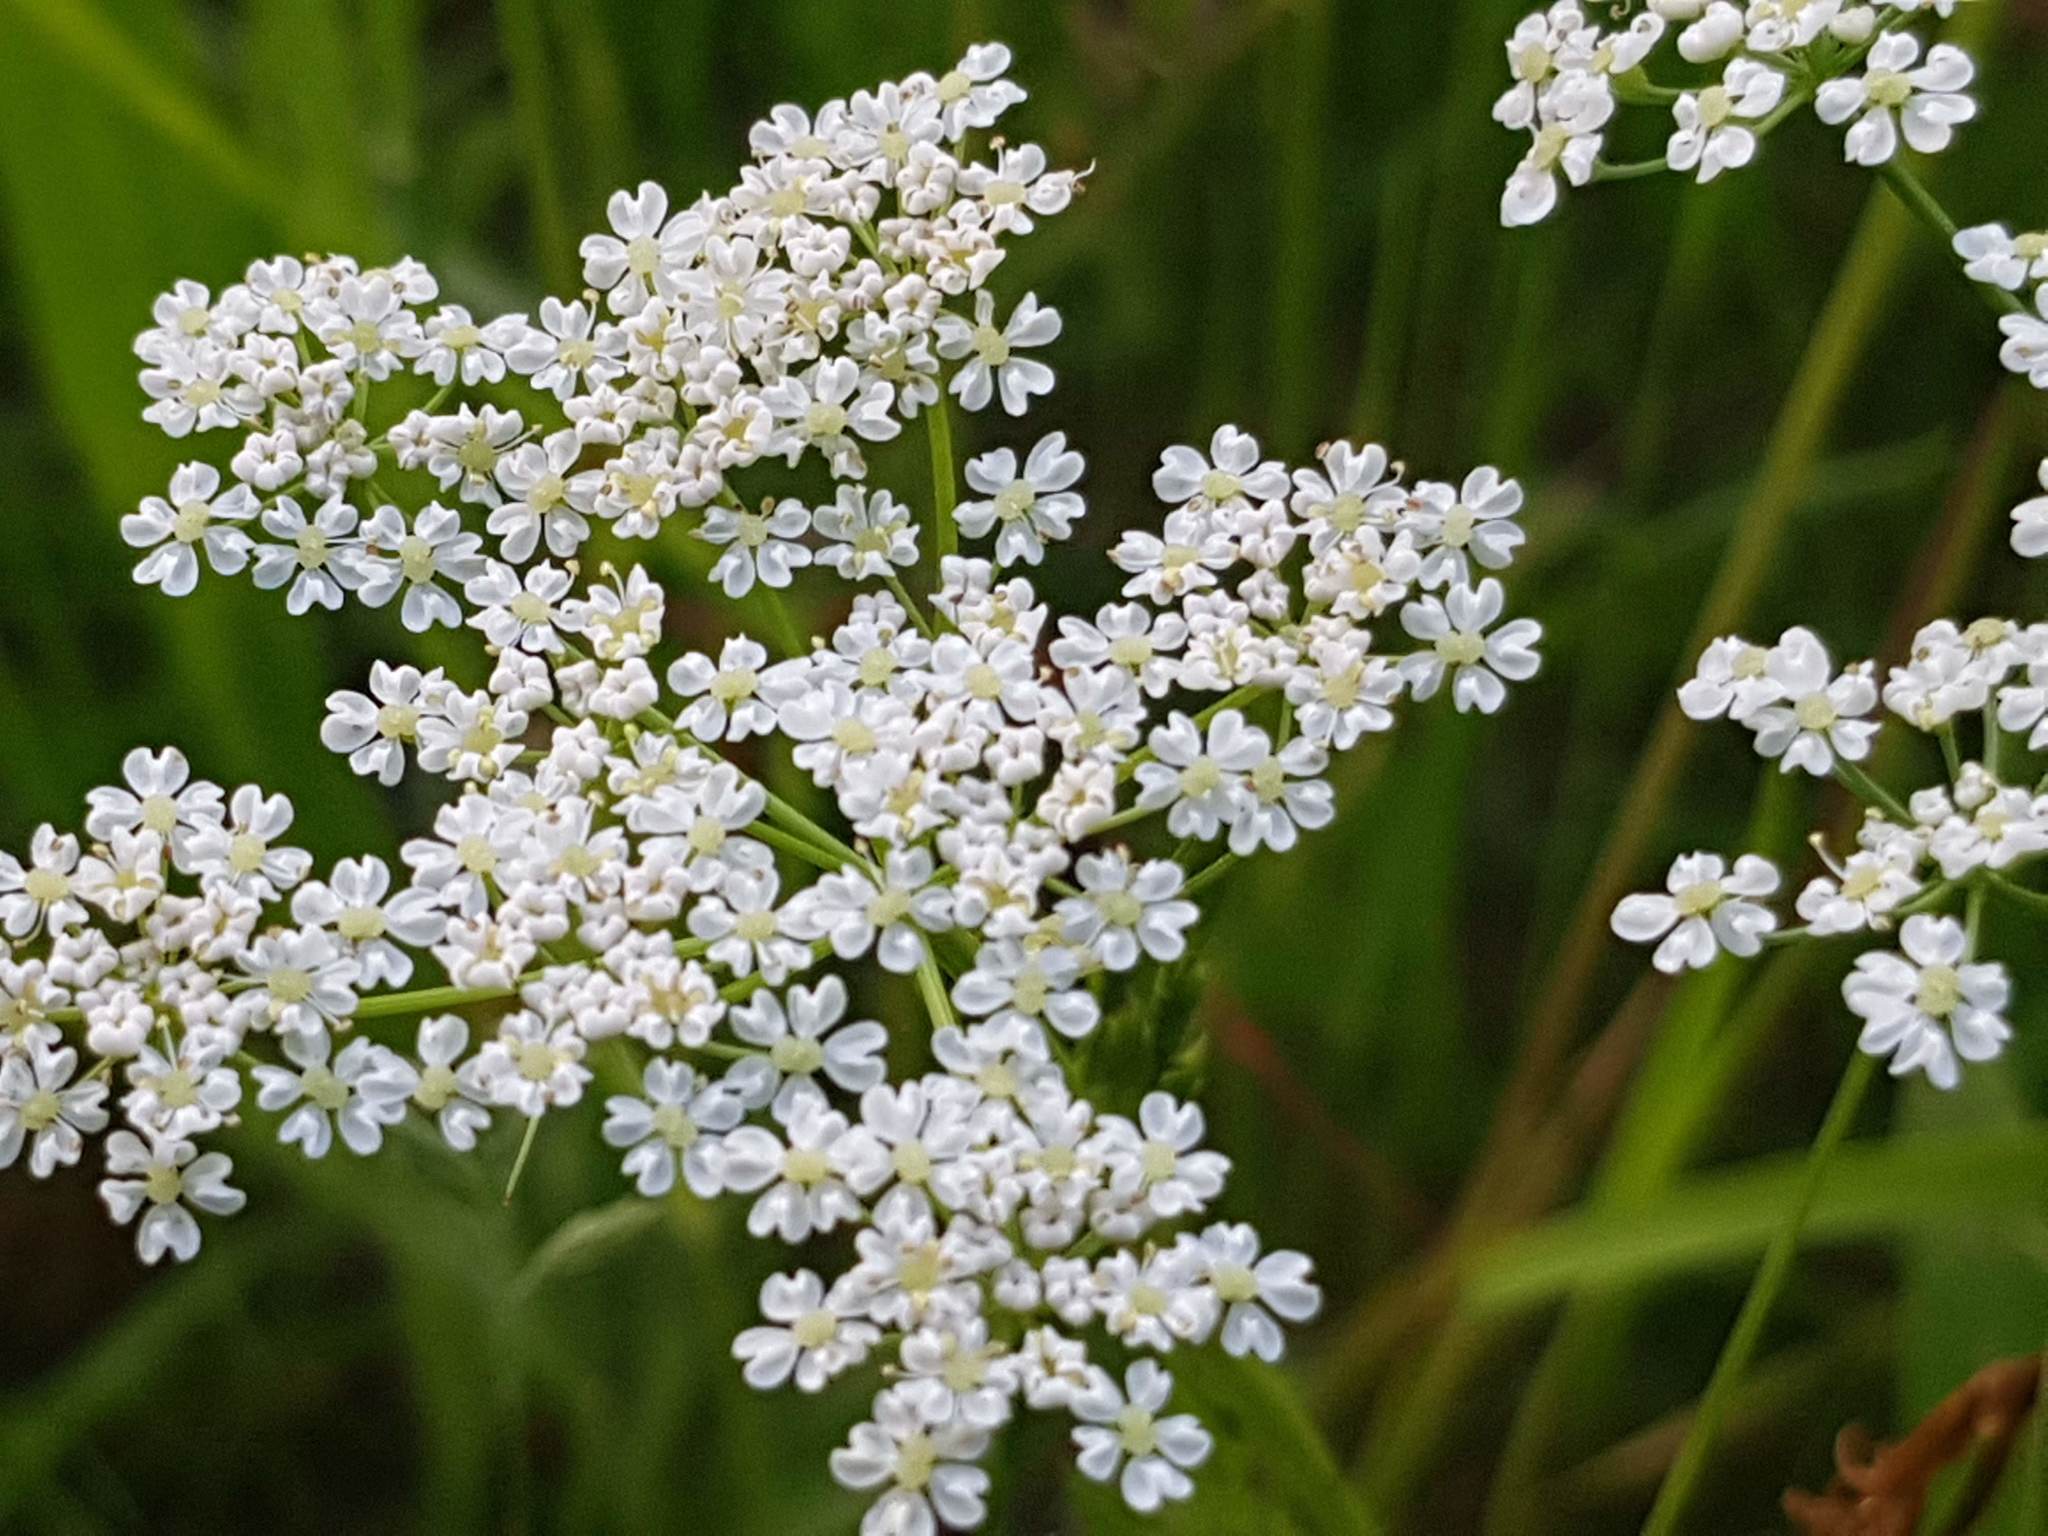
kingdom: Plantae
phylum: Tracheophyta
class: Magnoliopsida
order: Apiales
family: Apiaceae
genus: Carum
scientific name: Carum carvi
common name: Caraway
